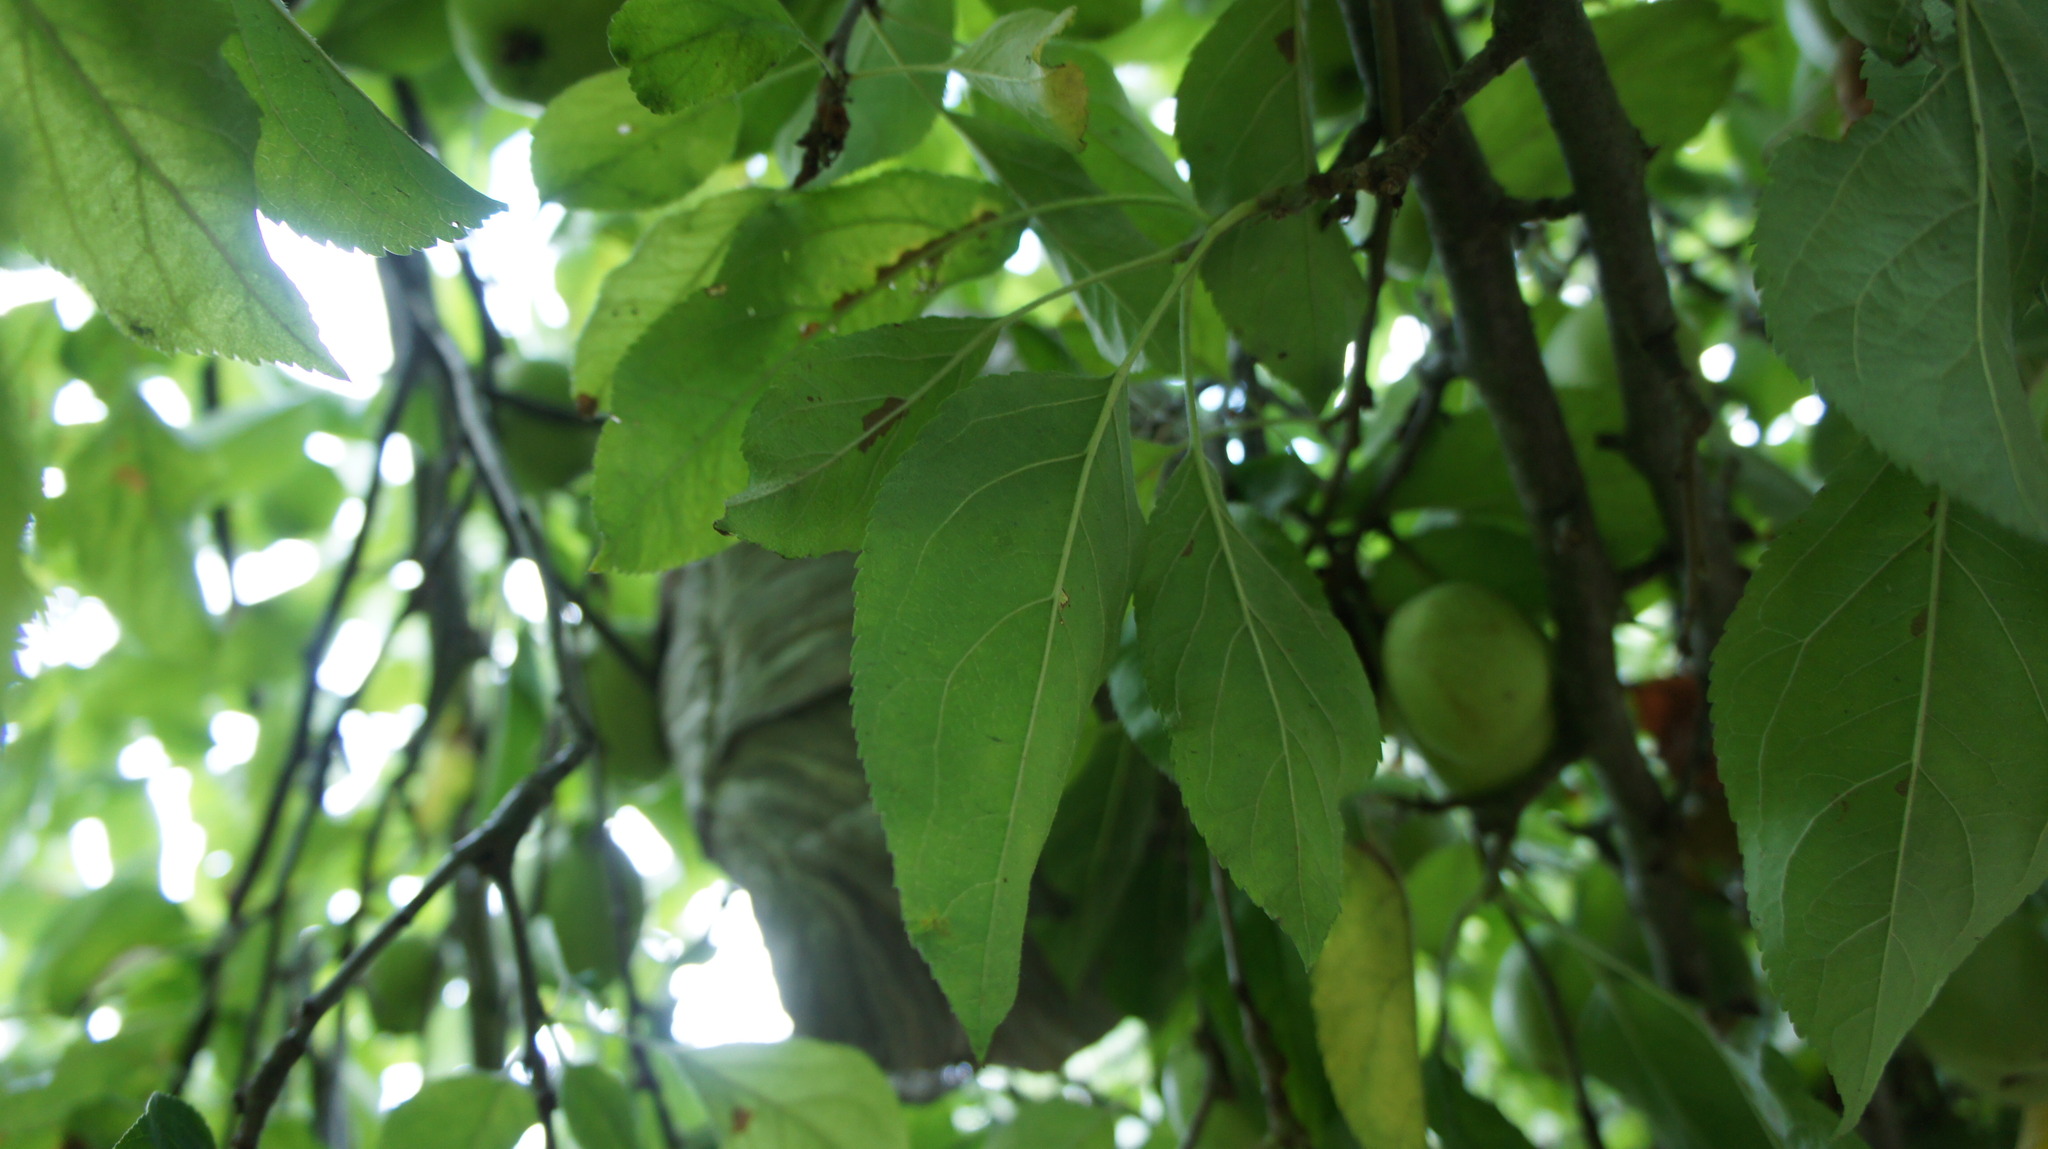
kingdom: Animalia
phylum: Arthropoda
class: Insecta
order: Hymenoptera
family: Vespidae
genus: Dolichovespula
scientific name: Dolichovespula media
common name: Median wasp
